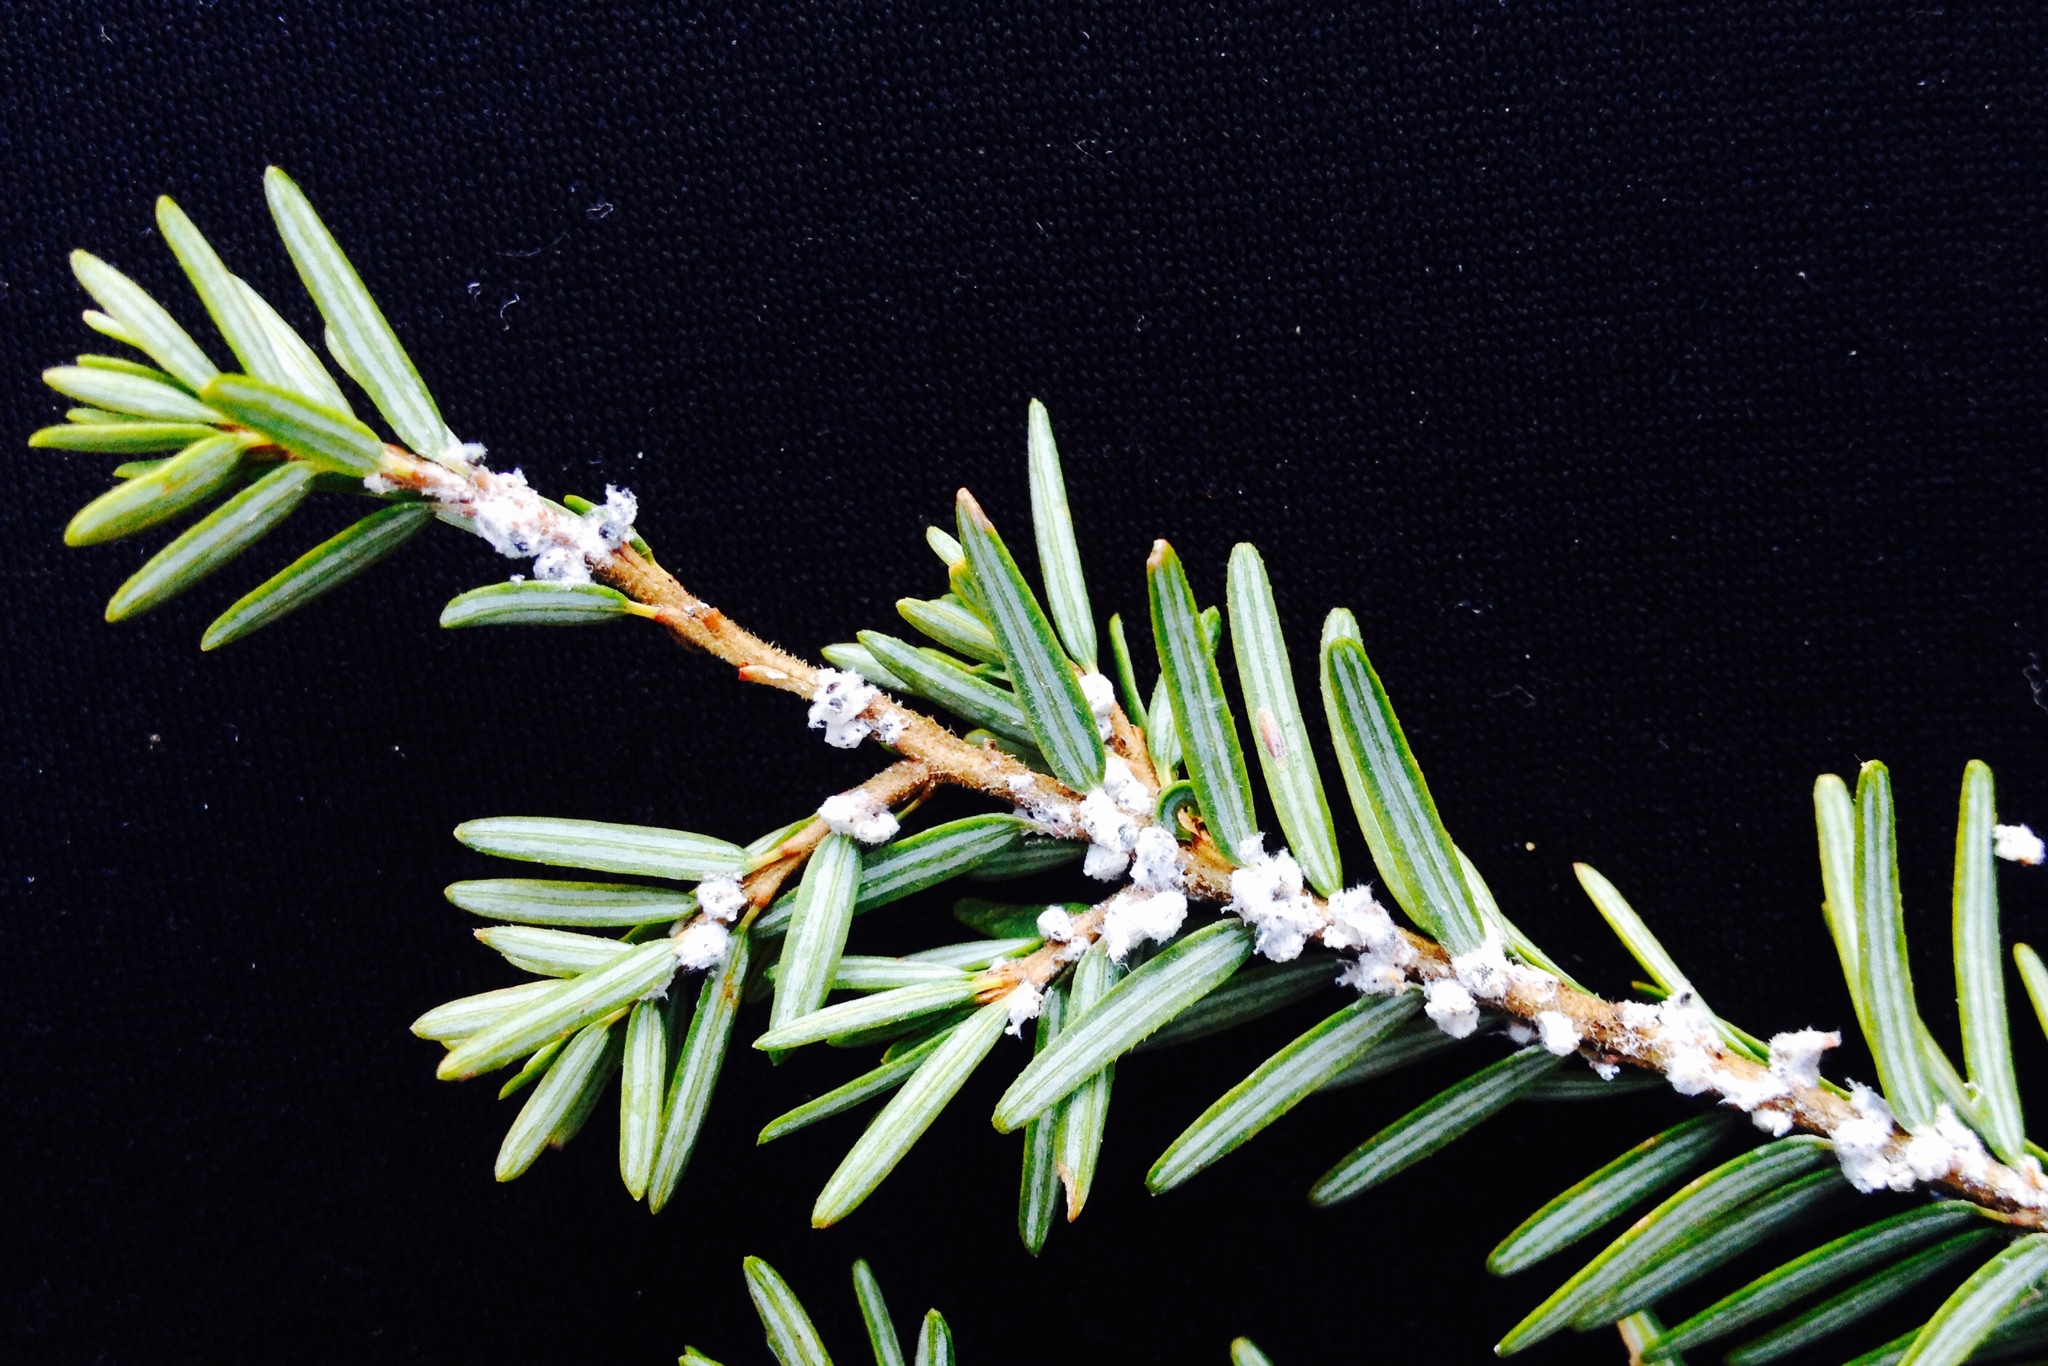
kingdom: Animalia
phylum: Arthropoda
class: Insecta
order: Hemiptera
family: Adelgidae
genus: Adelges
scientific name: Adelges tsugae
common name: Hemlock woolly adelgid
